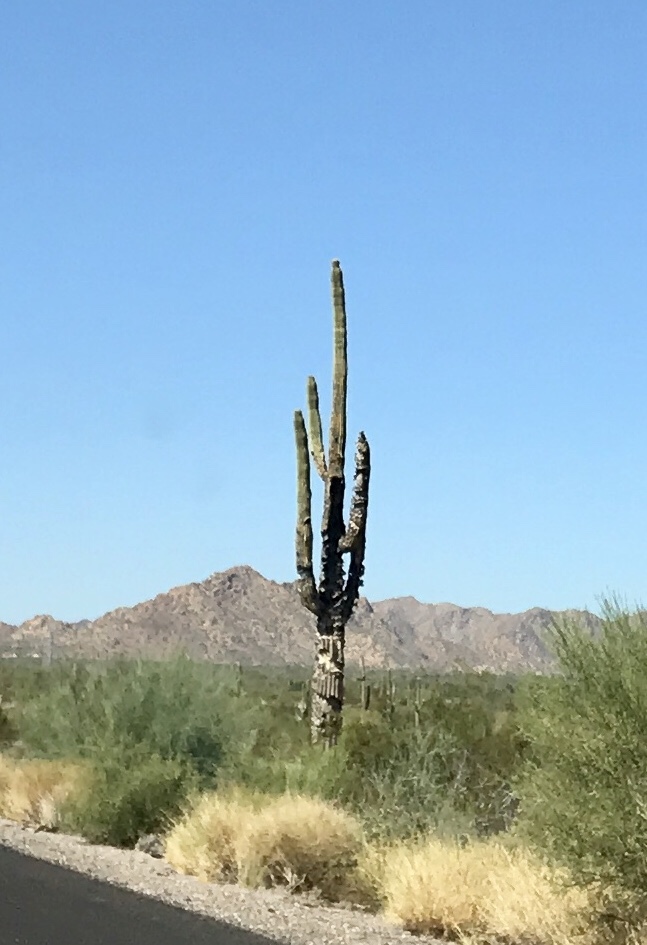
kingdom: Plantae
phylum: Tracheophyta
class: Magnoliopsida
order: Caryophyllales
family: Cactaceae
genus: Carnegiea
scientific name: Carnegiea gigantea
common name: Saguaro
